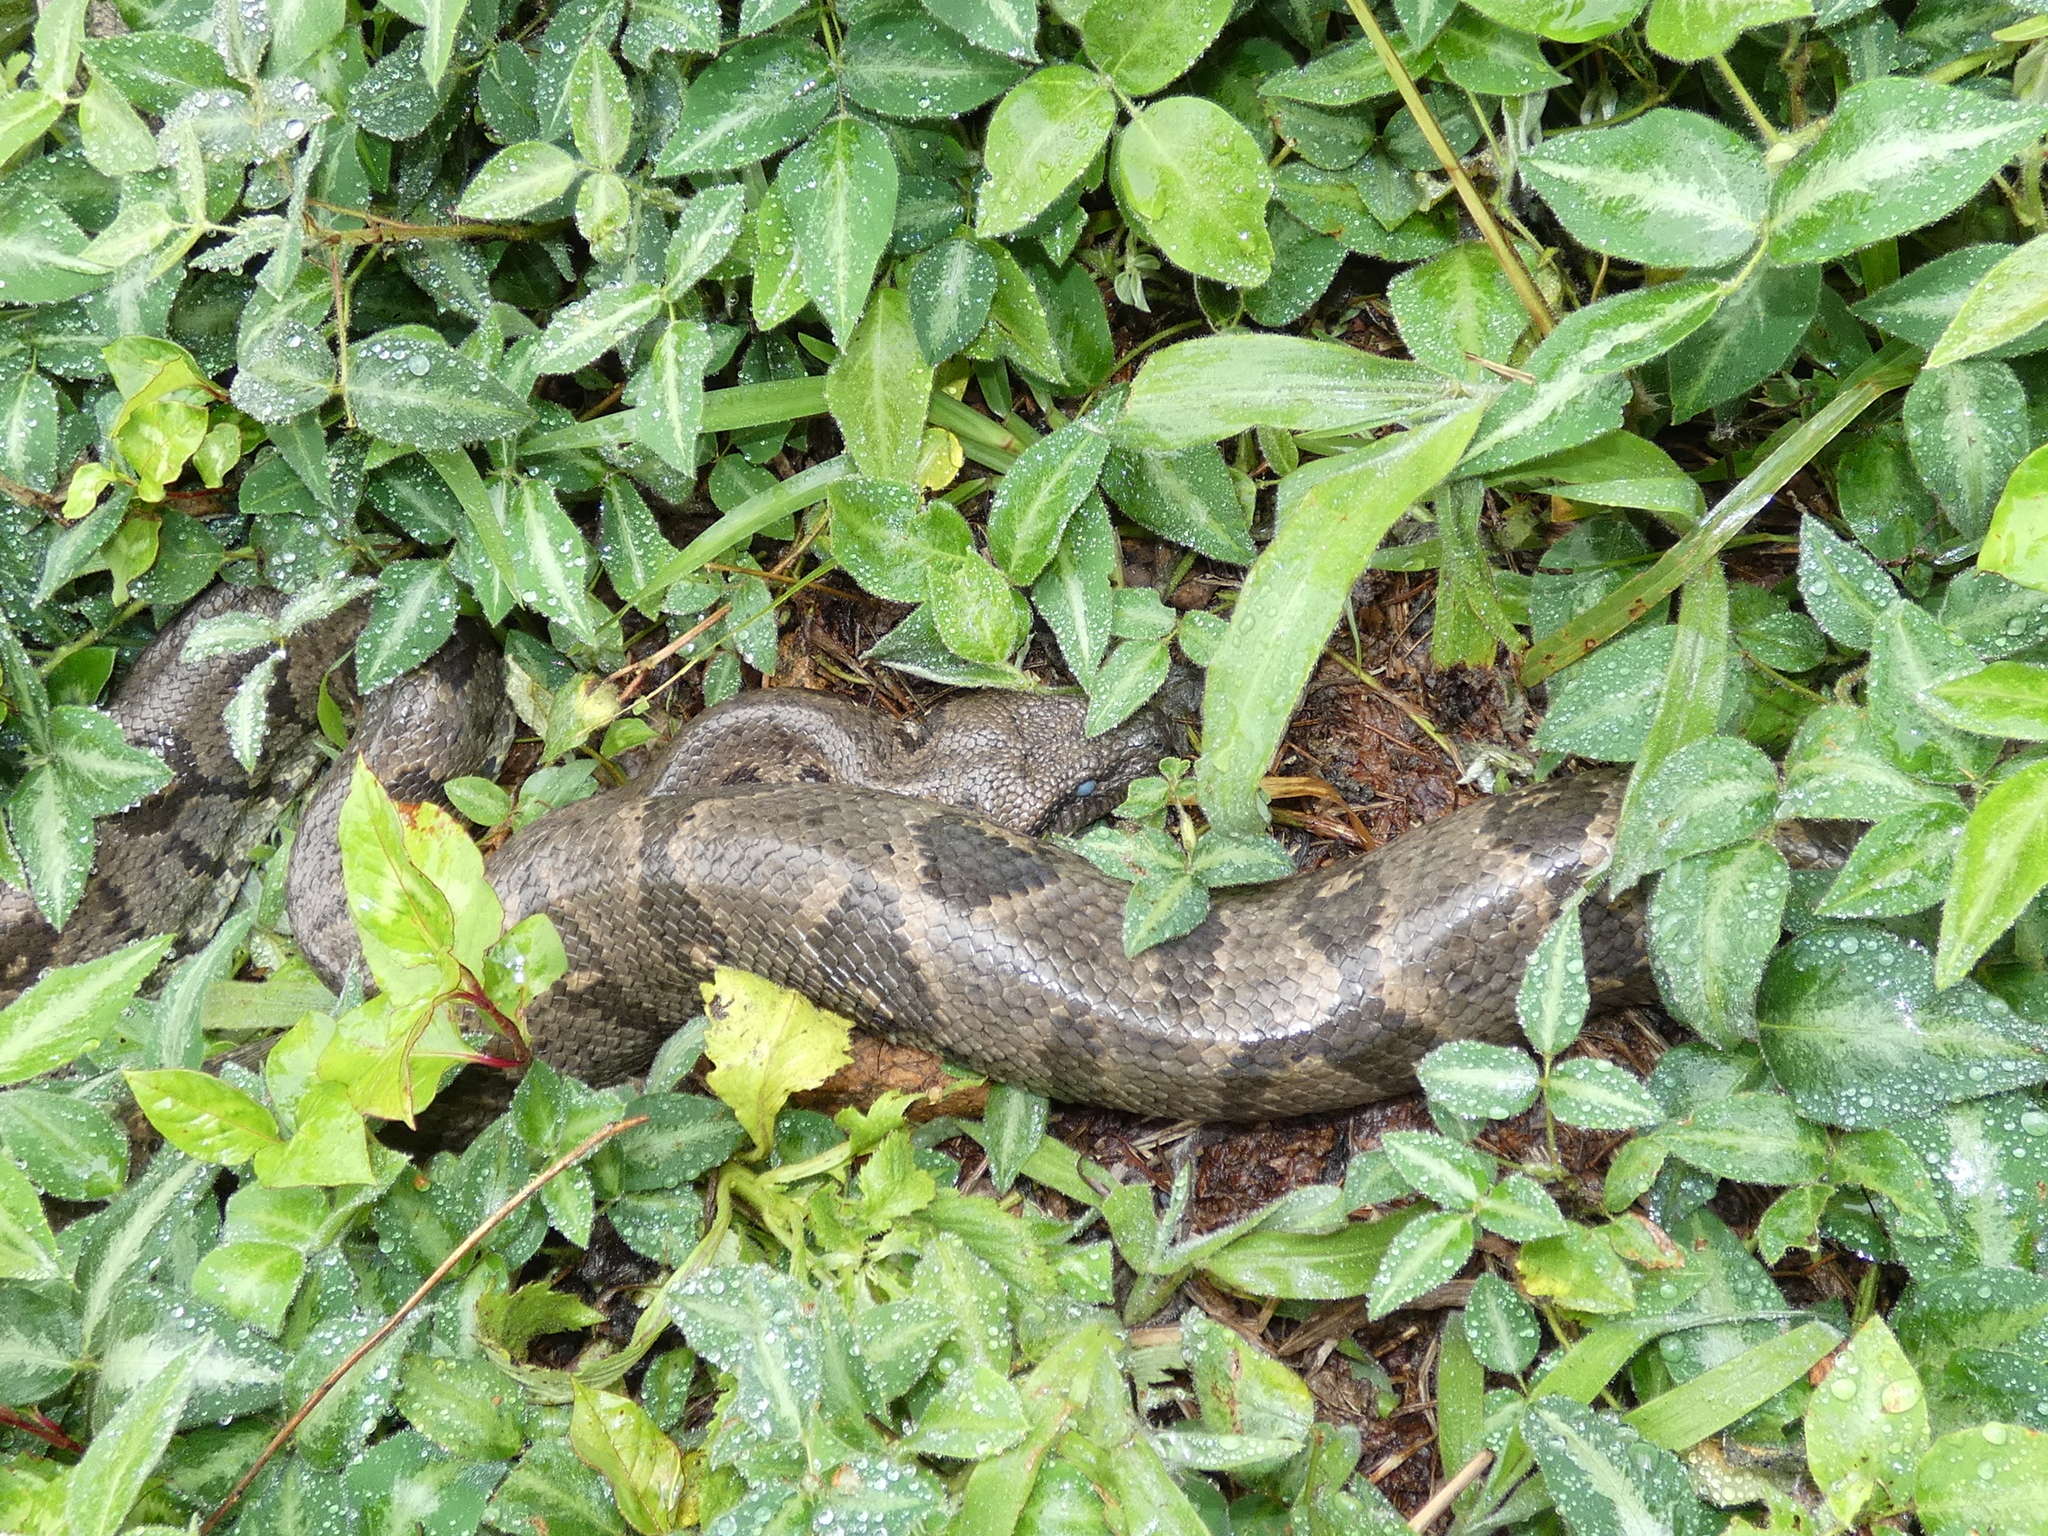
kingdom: Animalia
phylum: Chordata
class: Squamata
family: Boidae
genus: Sanzinia
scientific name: Sanzinia madagascariensis
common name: Madagascar tree boa
